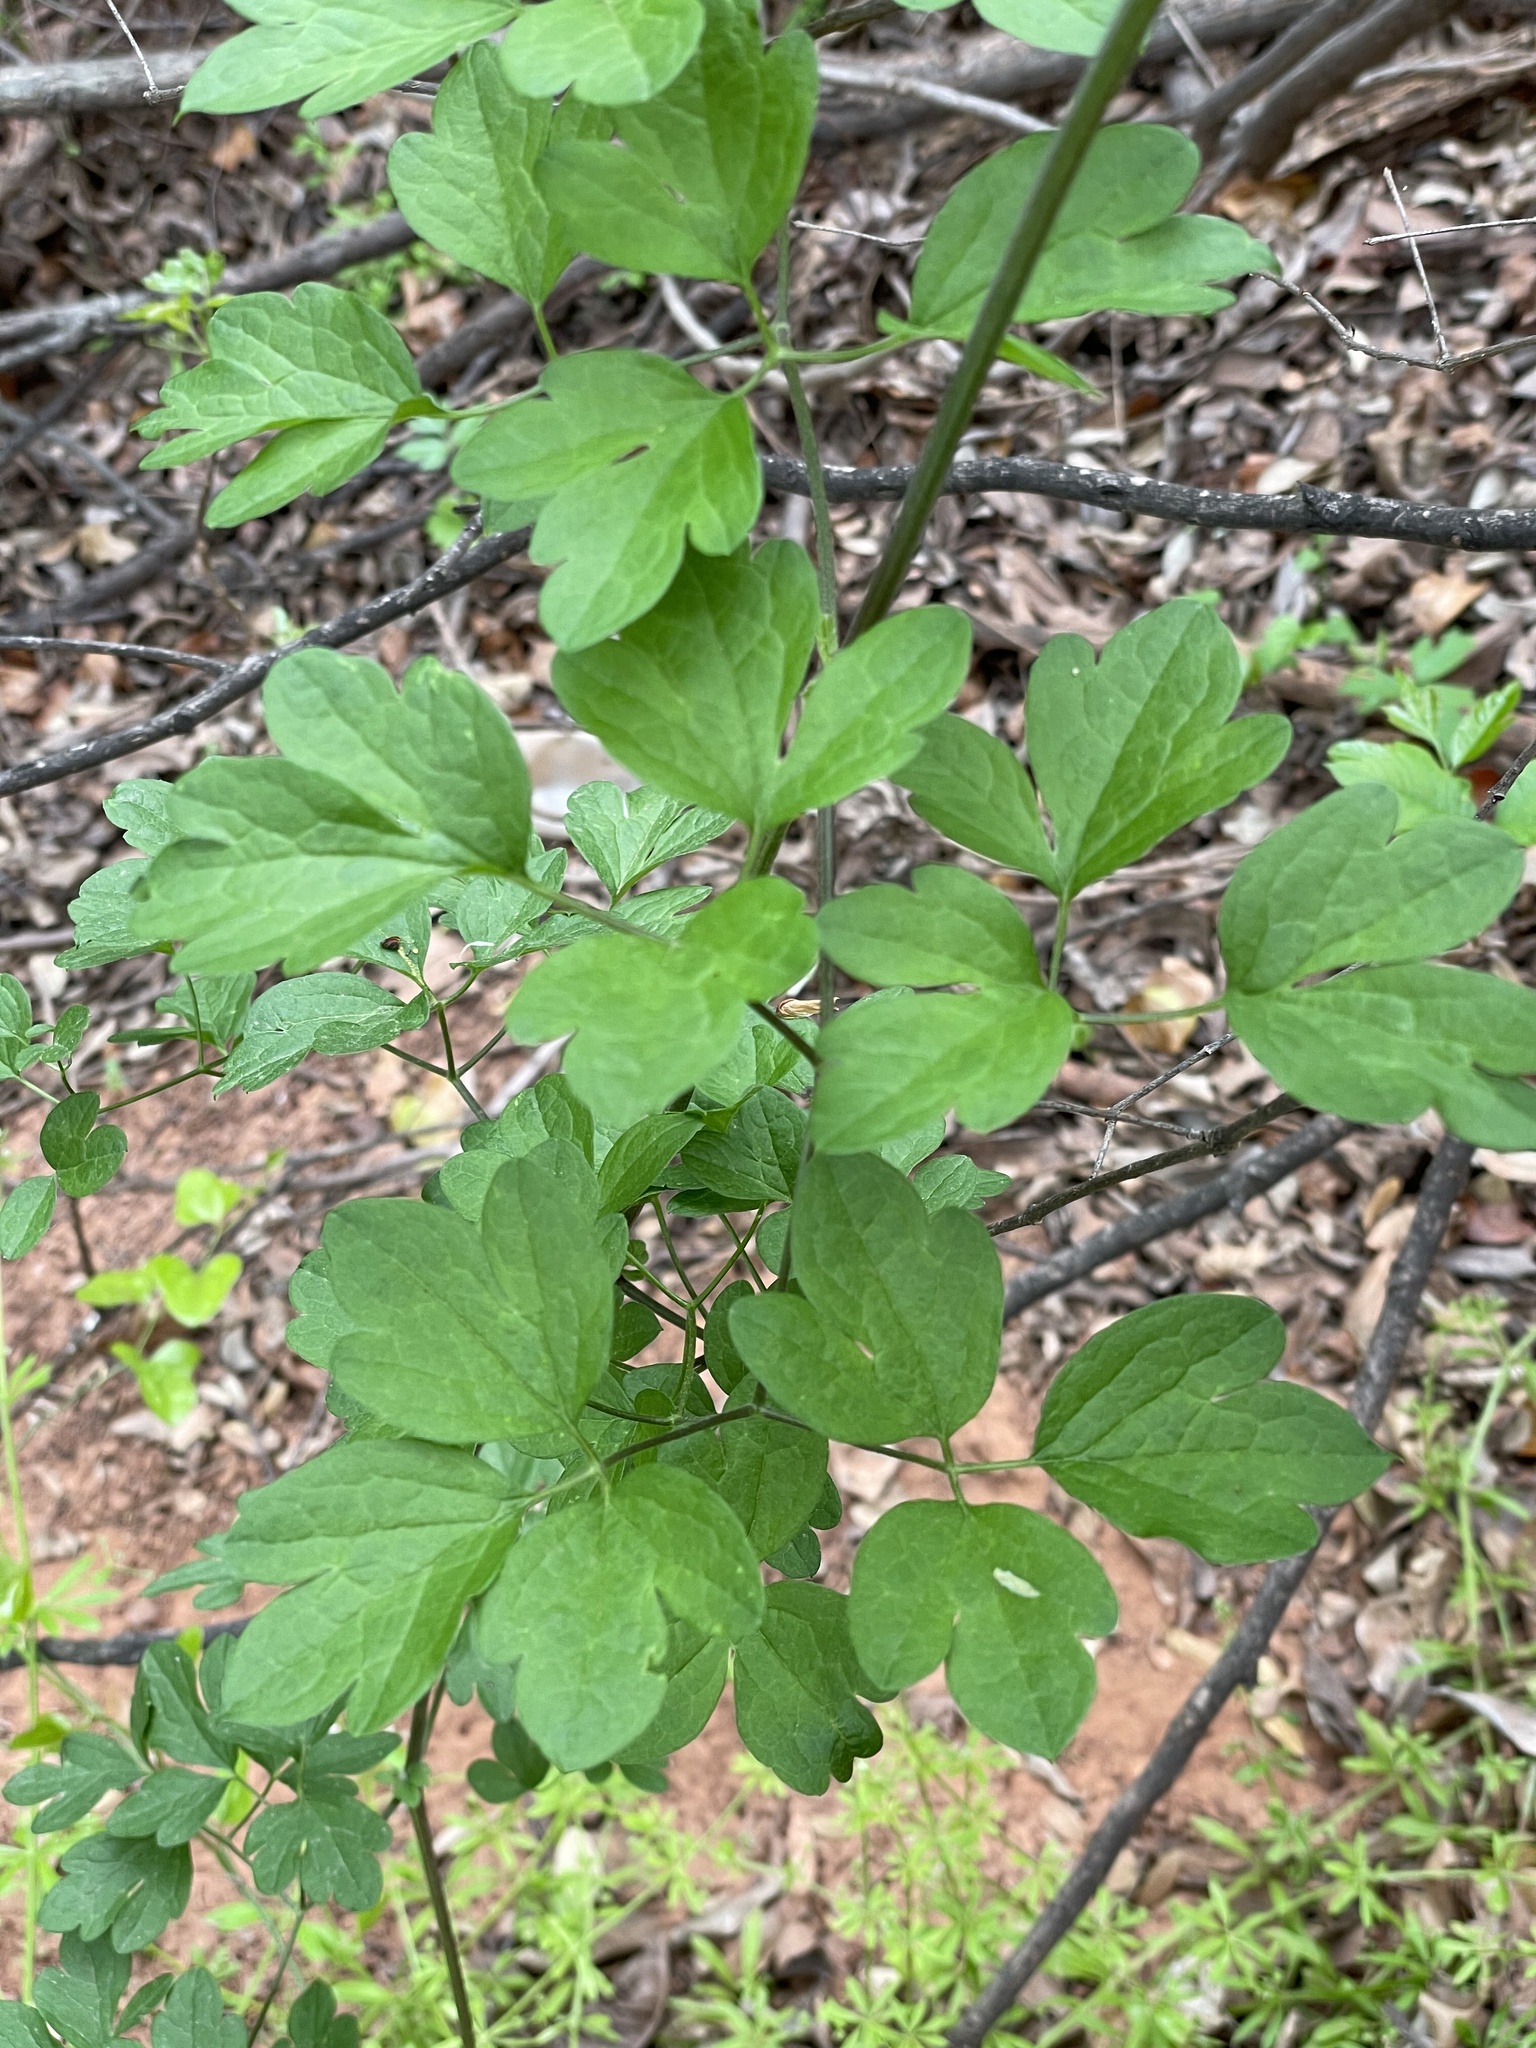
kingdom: Plantae
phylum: Tracheophyta
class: Magnoliopsida
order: Ranunculales
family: Ranunculaceae
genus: Clematis
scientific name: Clematis pitcheri
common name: Bellflower clematis
